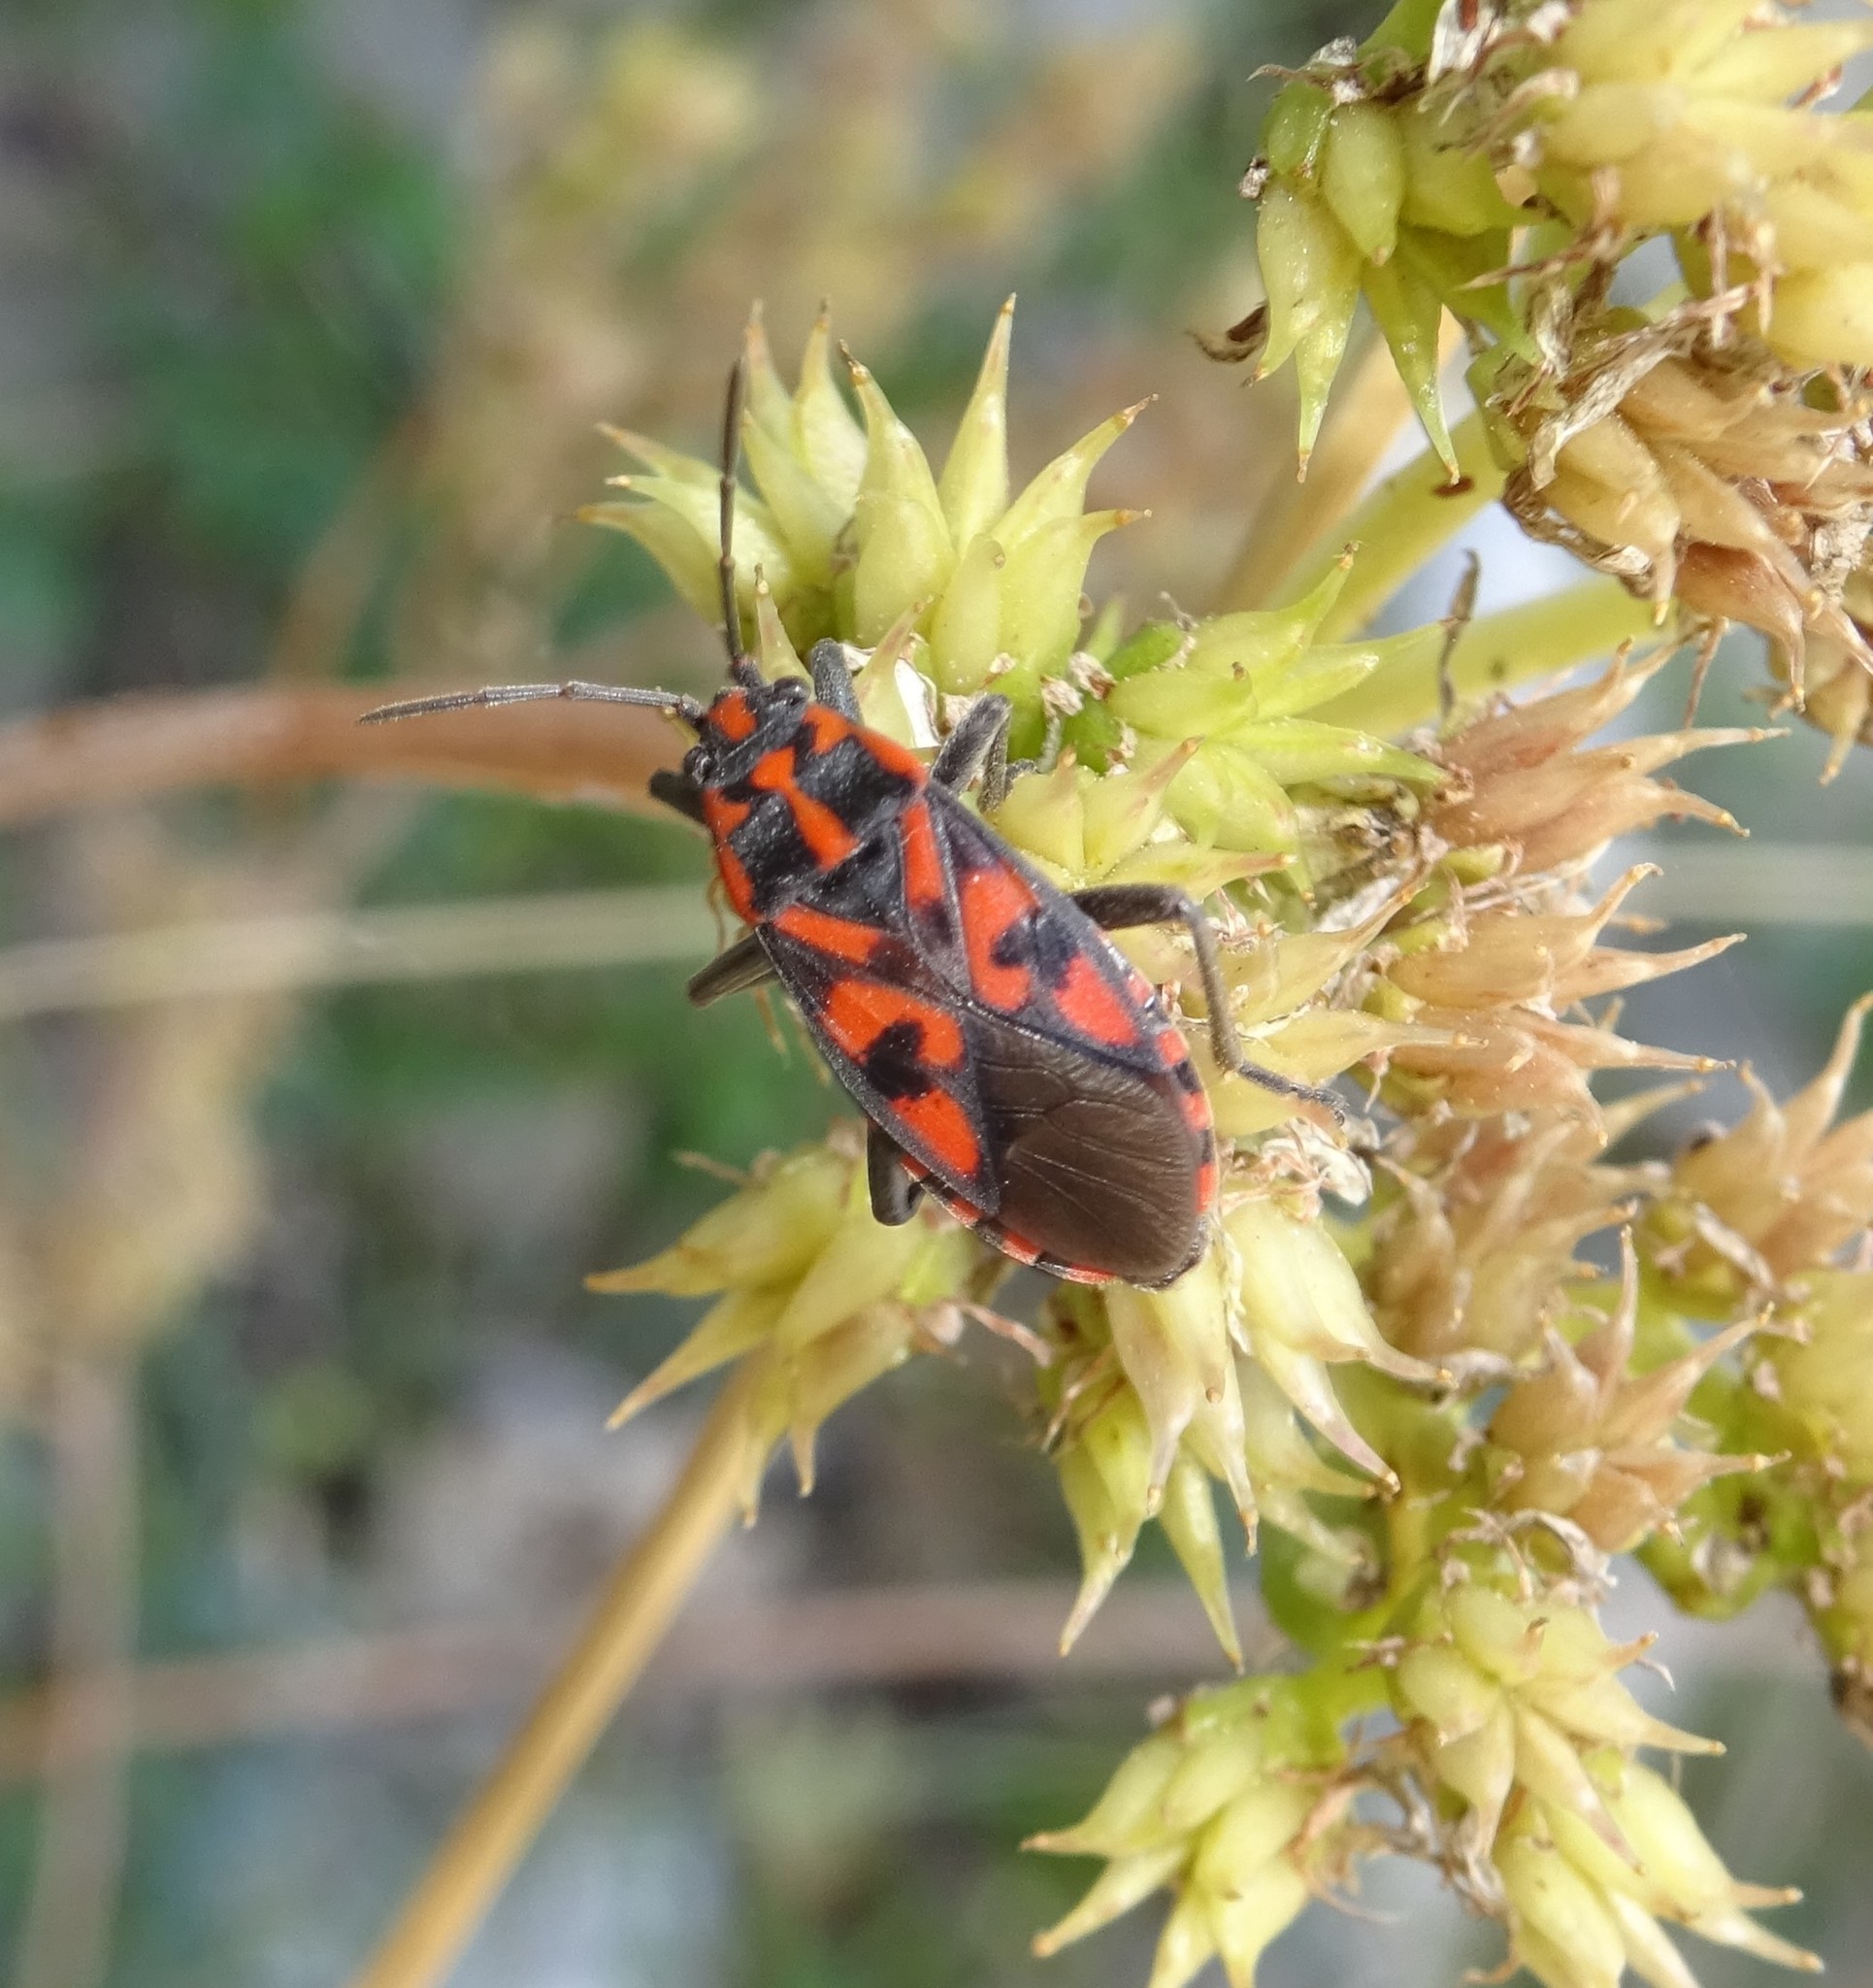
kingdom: Animalia
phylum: Arthropoda
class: Insecta
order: Hemiptera
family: Lygaeidae
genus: Spilostethus
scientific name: Spilostethus saxatilis
